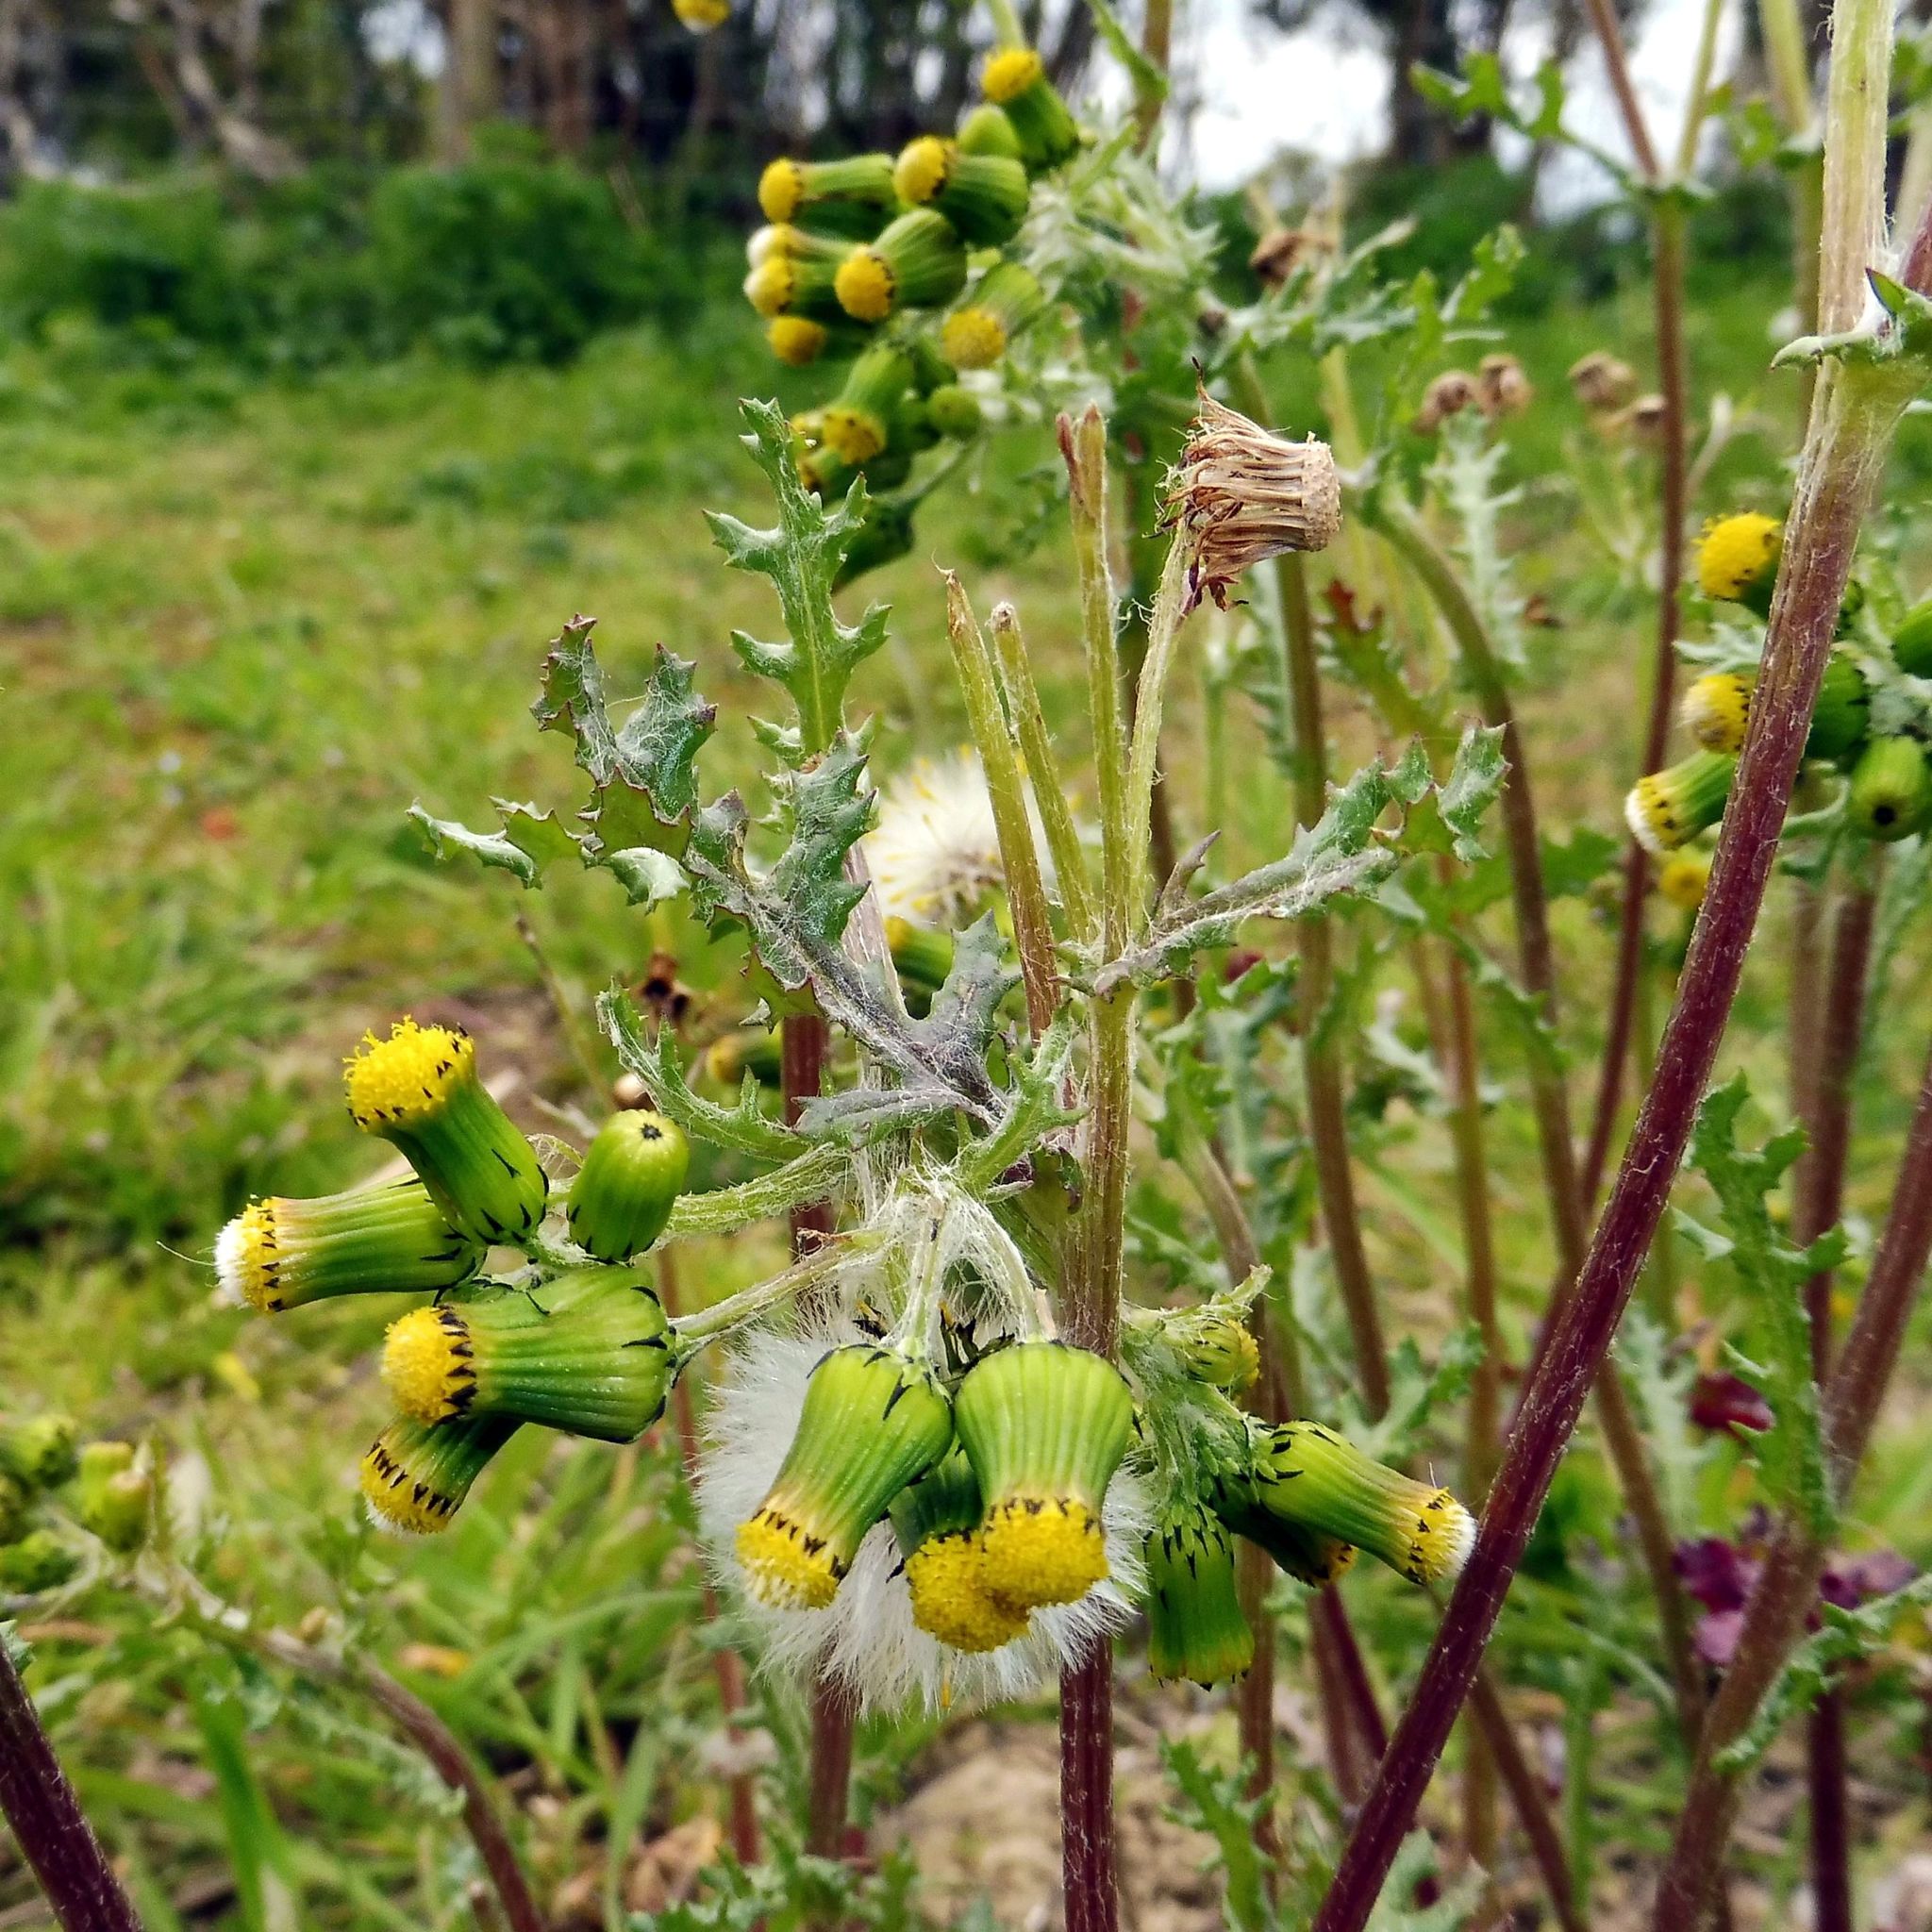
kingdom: Plantae
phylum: Tracheophyta
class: Magnoliopsida
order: Asterales
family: Asteraceae
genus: Senecio
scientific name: Senecio vulgaris
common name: Old-man-in-the-spring
